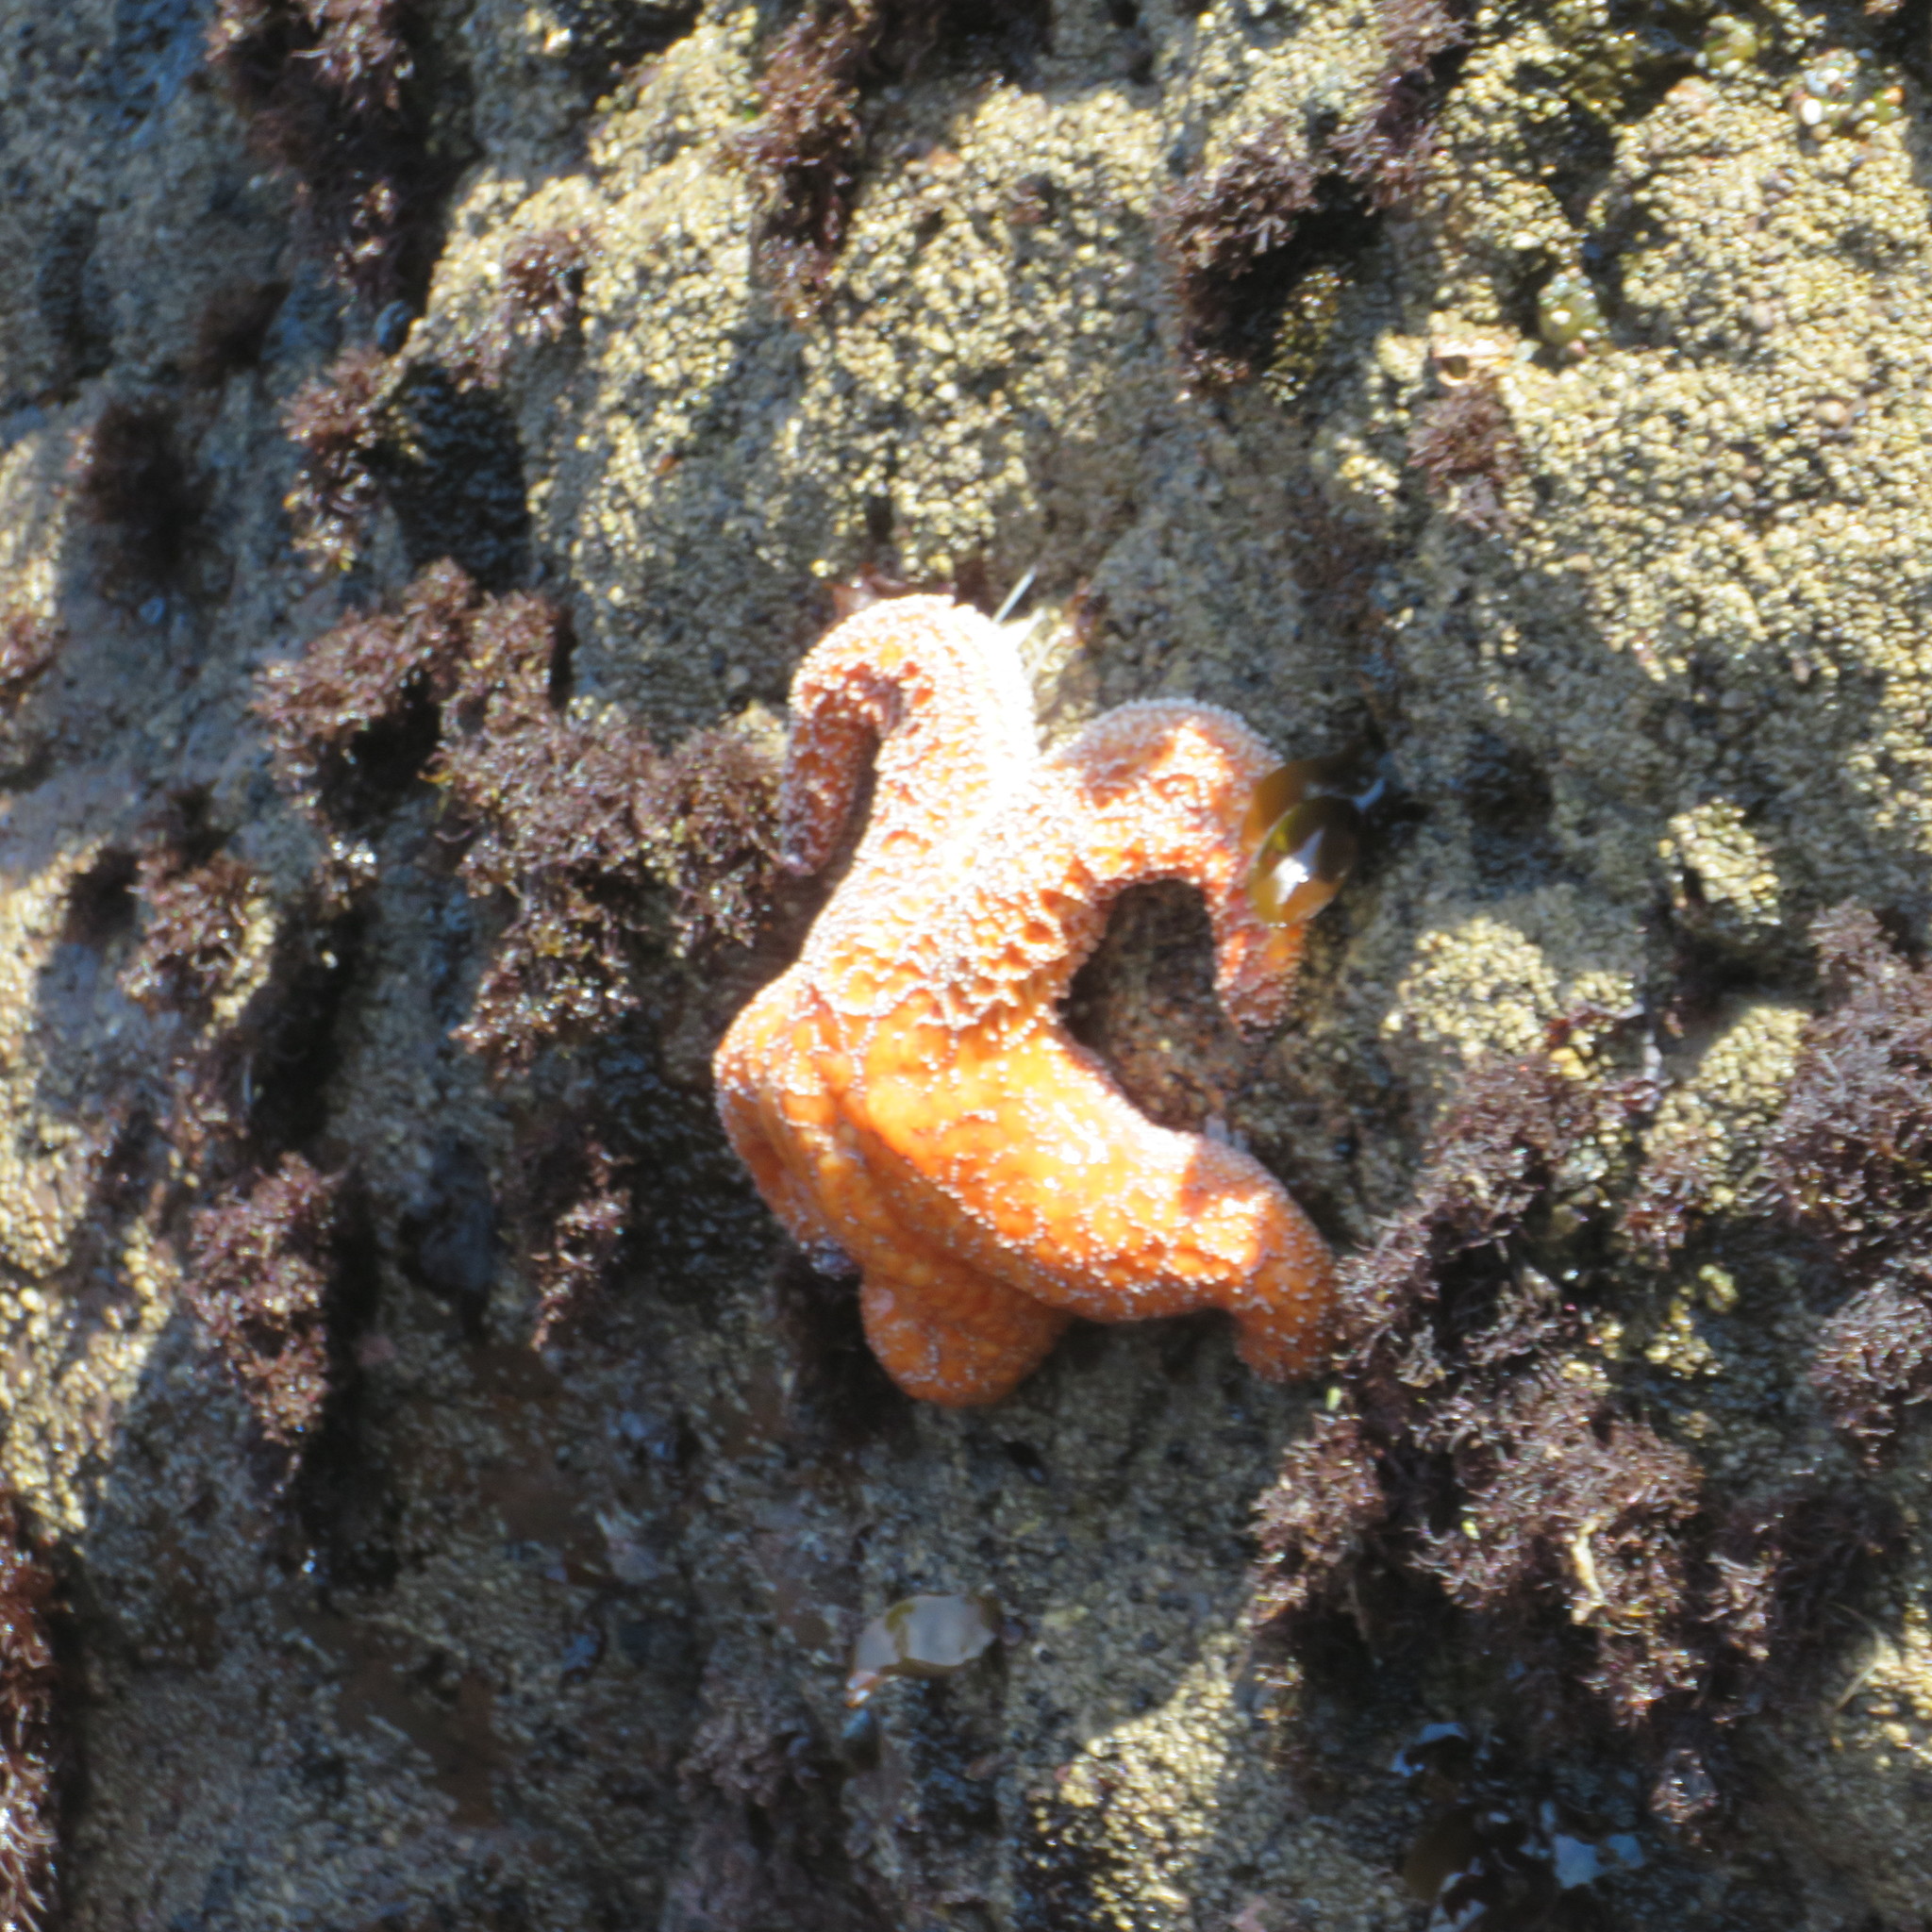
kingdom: Animalia
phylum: Echinodermata
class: Asteroidea
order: Forcipulatida
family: Asteriidae
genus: Pisaster
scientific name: Pisaster ochraceus
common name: Ochre stars
